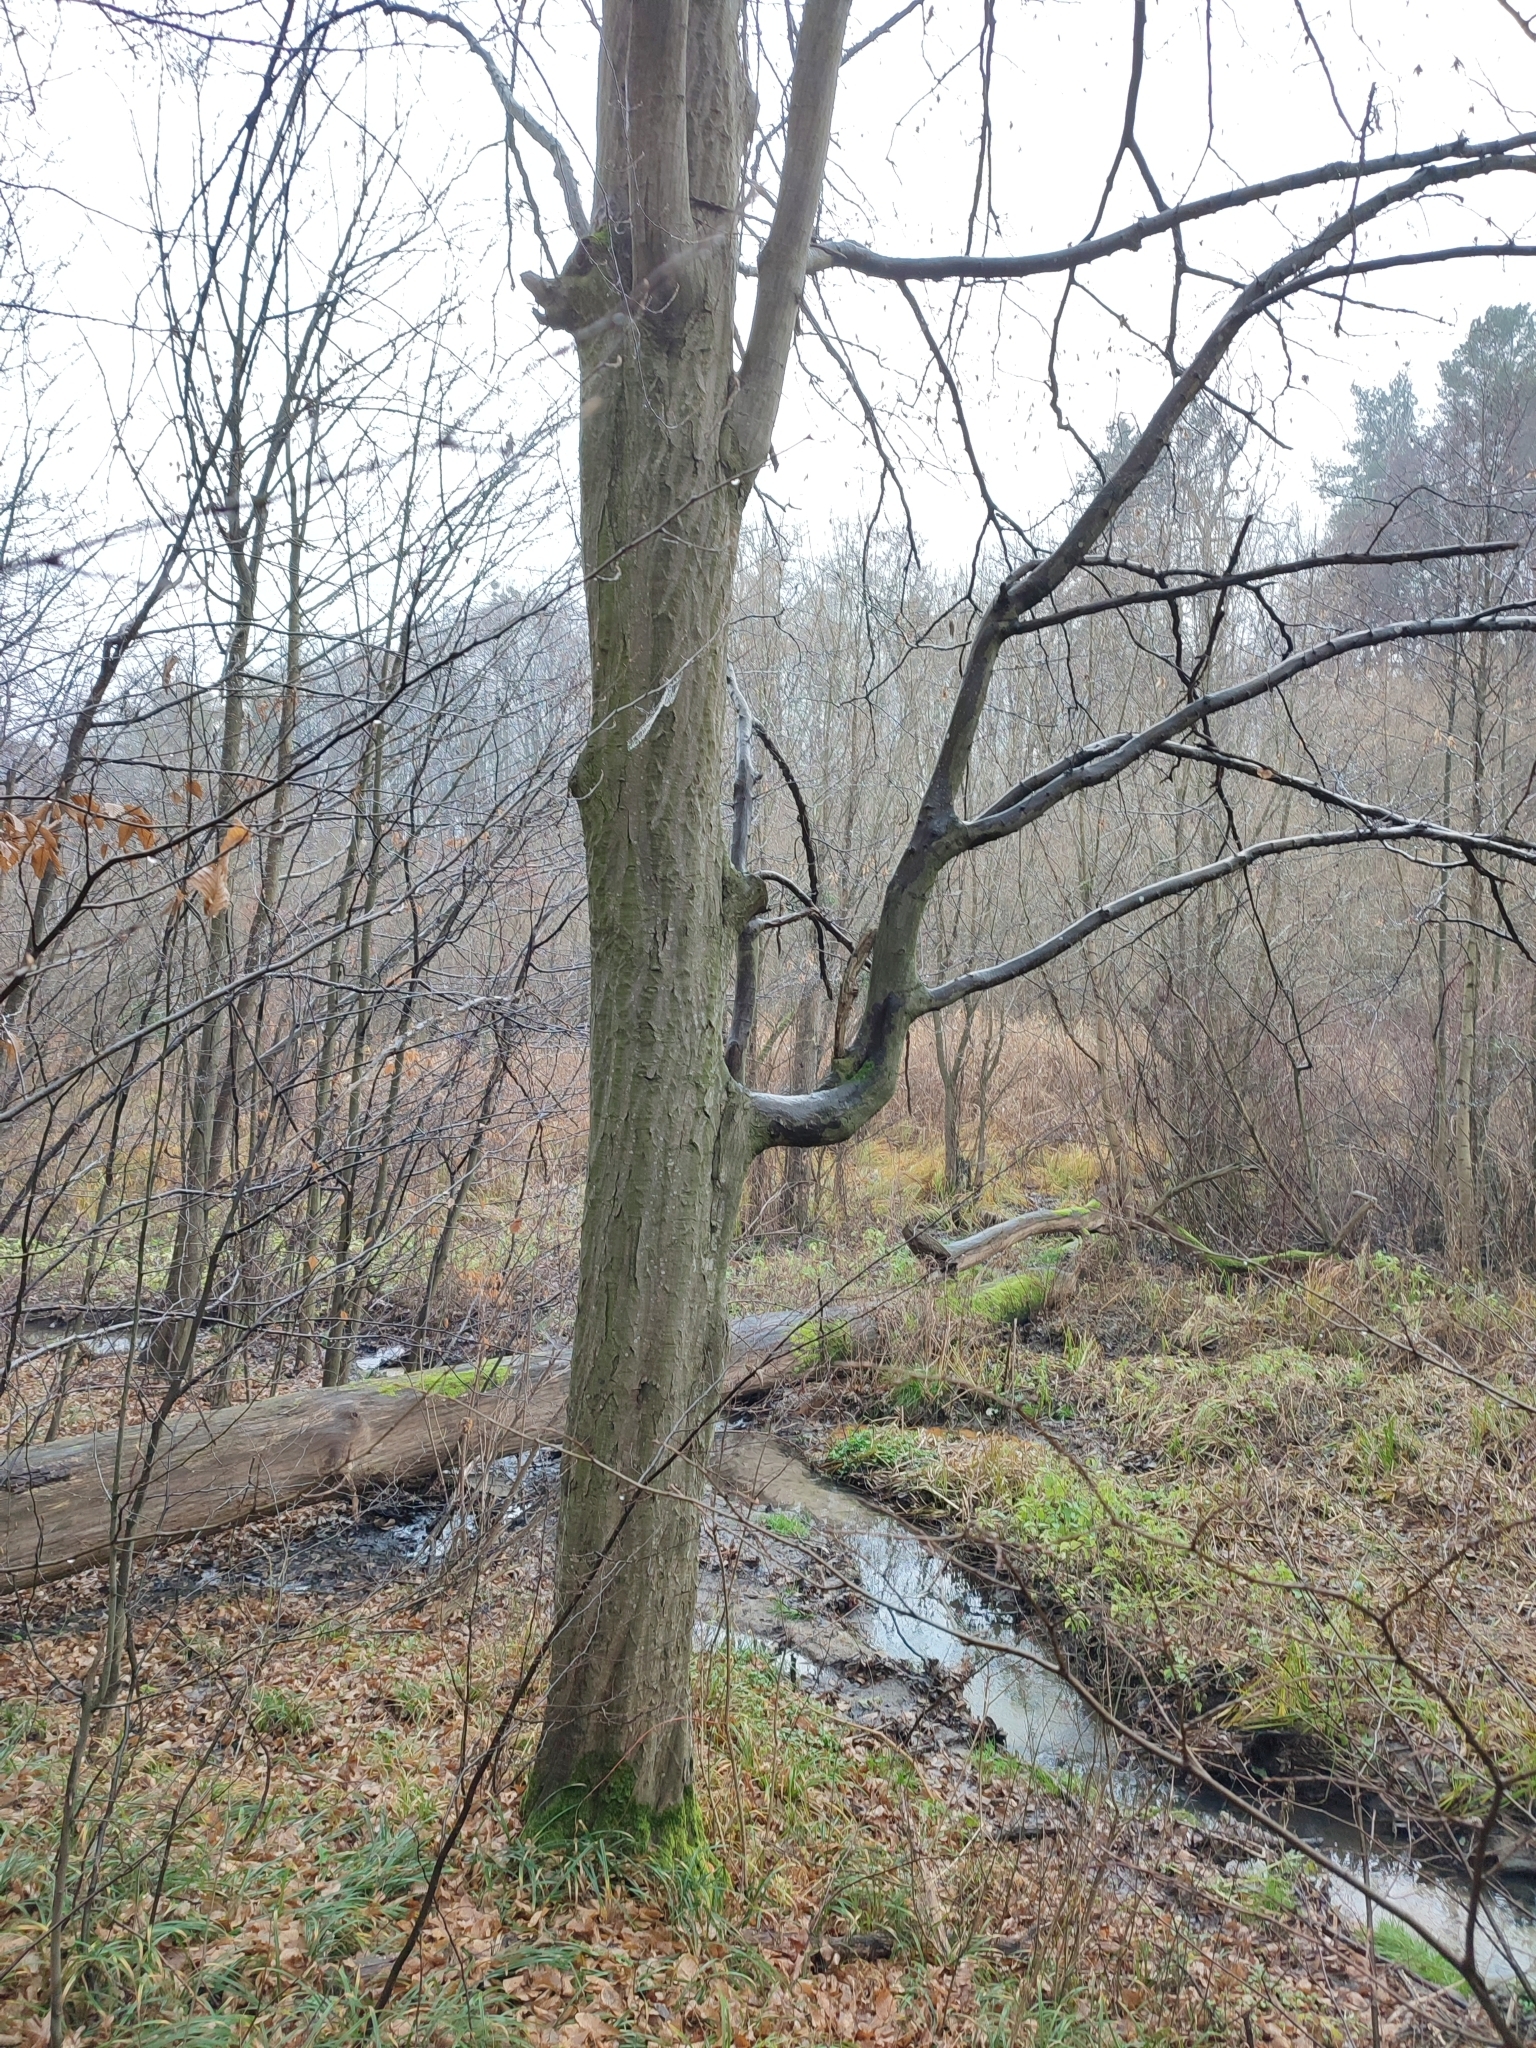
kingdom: Plantae
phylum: Tracheophyta
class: Magnoliopsida
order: Fagales
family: Betulaceae
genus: Carpinus
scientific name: Carpinus betulus
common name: Hornbeam
